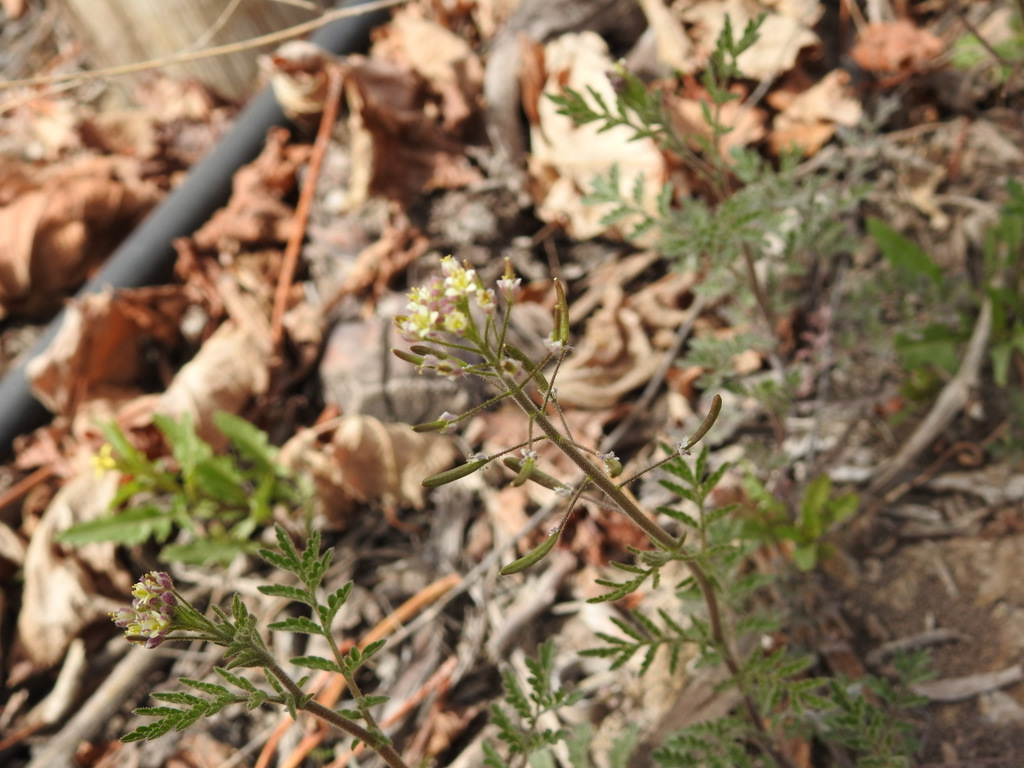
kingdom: Plantae
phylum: Tracheophyta
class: Magnoliopsida
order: Brassicales
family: Brassicaceae
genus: Descurainia
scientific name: Descurainia erodiifolia
